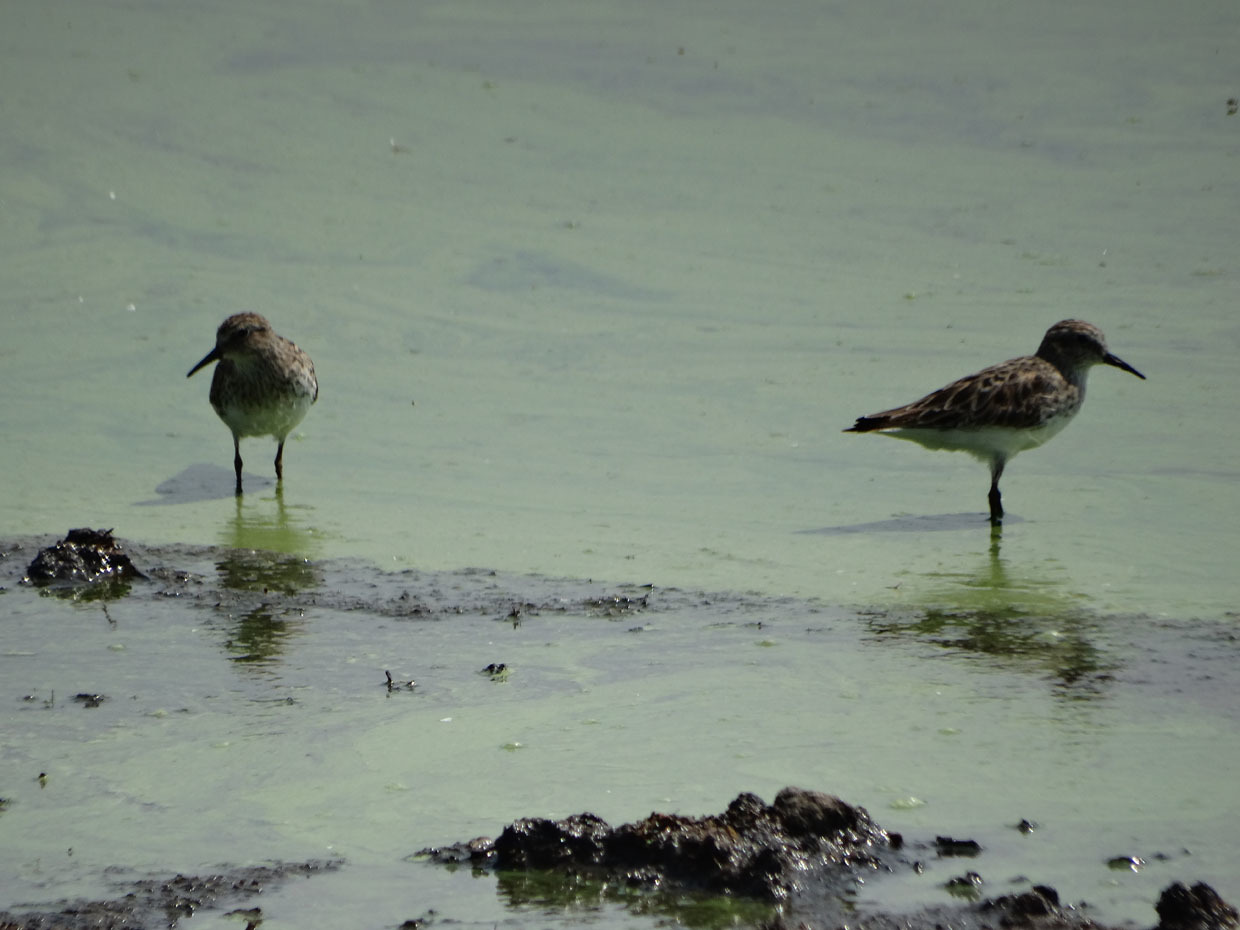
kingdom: Animalia
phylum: Chordata
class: Aves
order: Charadriiformes
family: Scolopacidae
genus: Calidris
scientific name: Calidris minutilla
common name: Least sandpiper
